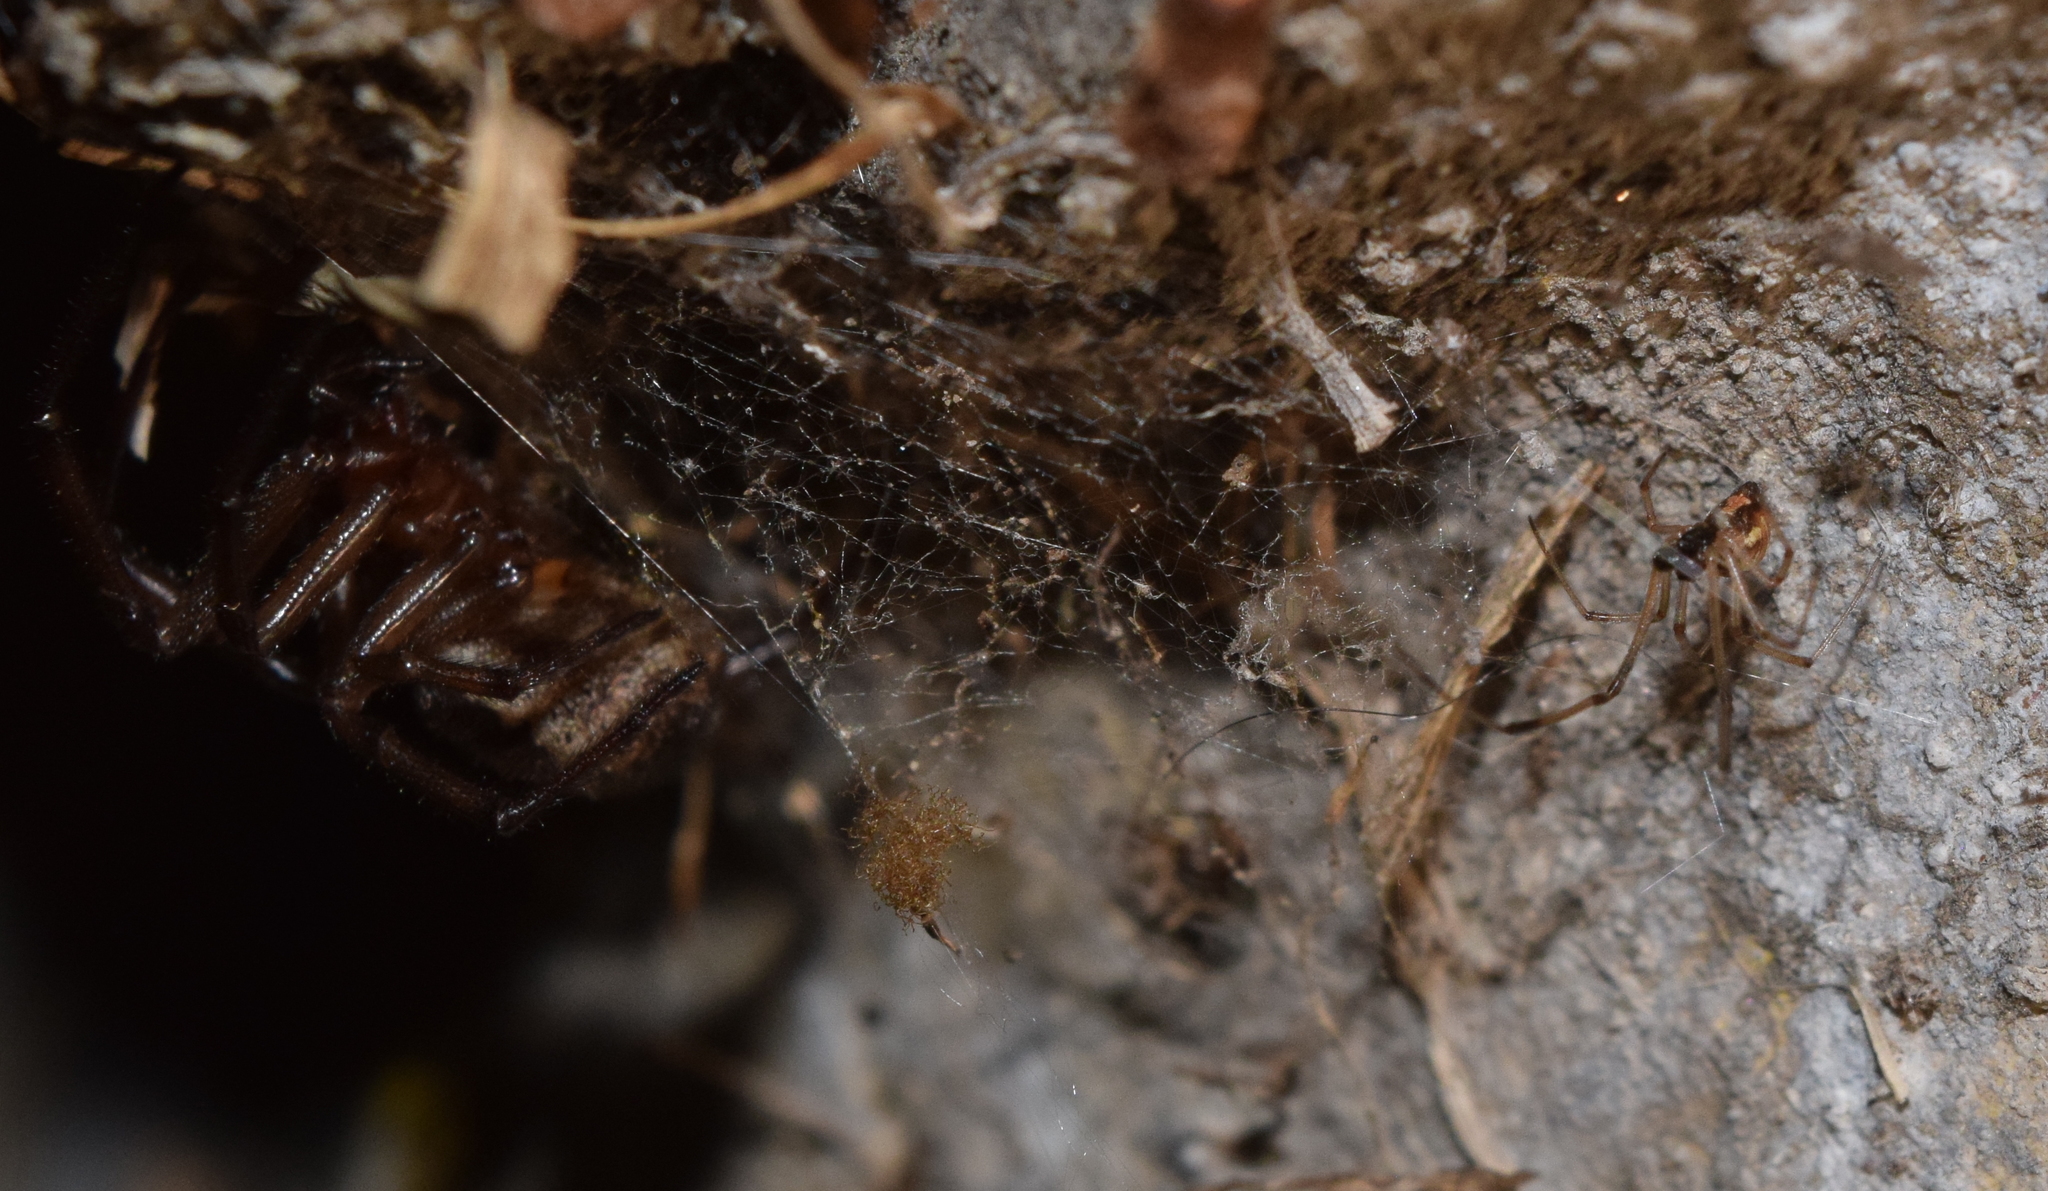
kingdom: Animalia
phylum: Arthropoda
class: Arachnida
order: Araneae
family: Theridiidae
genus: Latrodectus
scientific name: Latrodectus geometricus
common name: Brown widow spider
